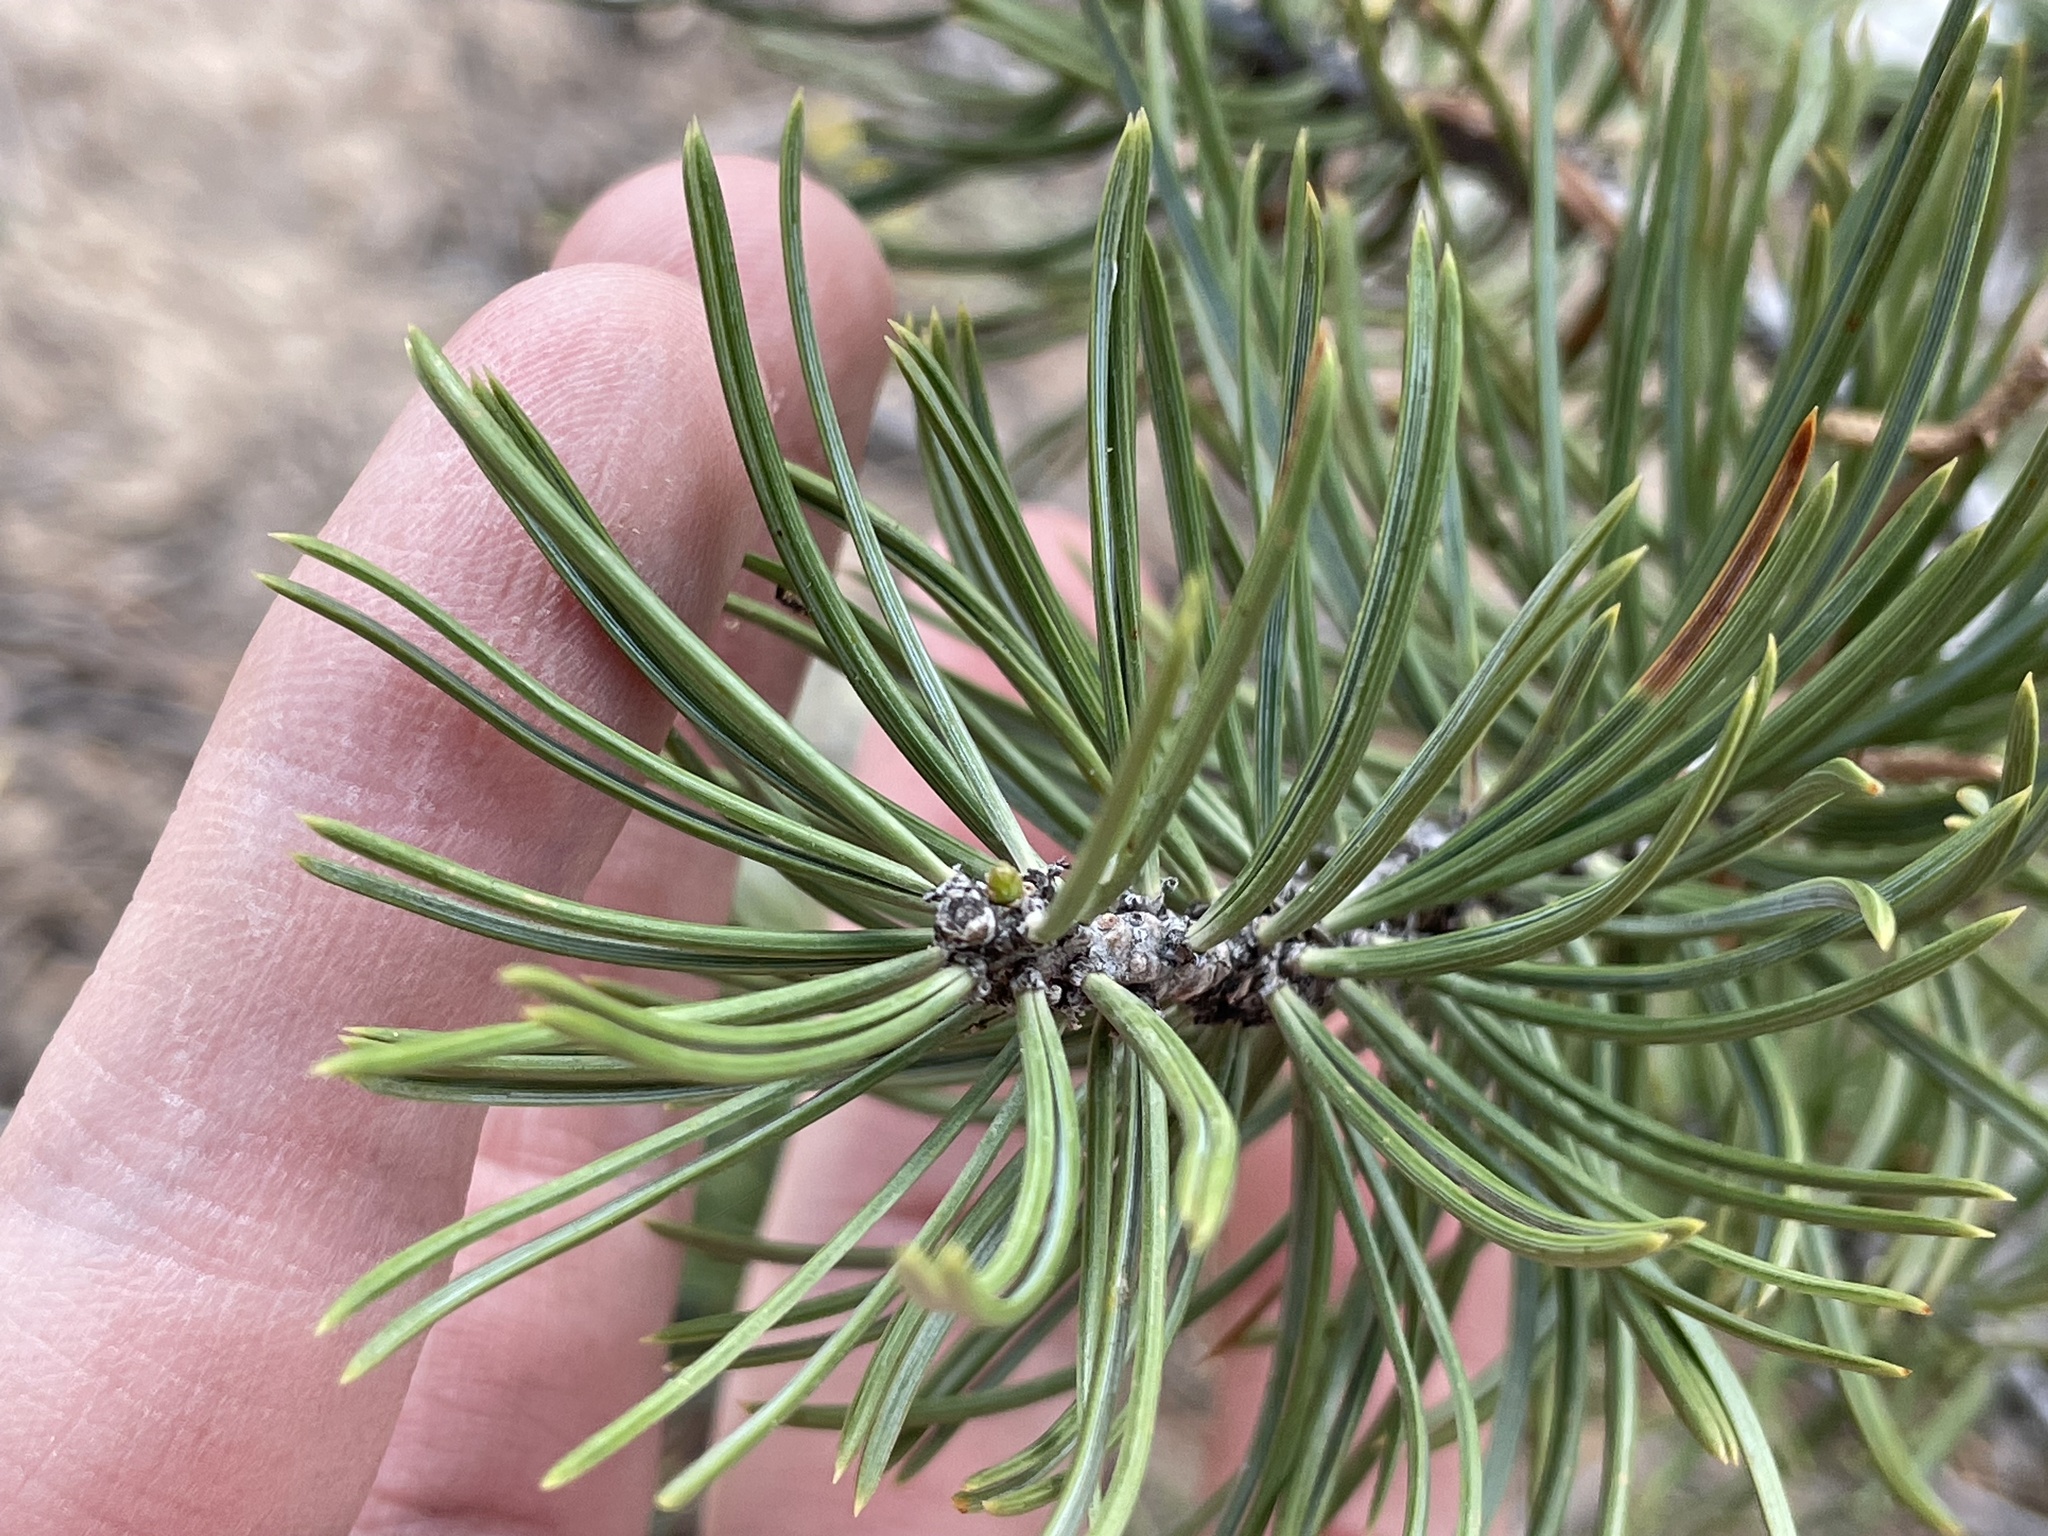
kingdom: Plantae
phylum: Tracheophyta
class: Pinopsida
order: Pinales
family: Pinaceae
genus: Pinus
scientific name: Pinus edulis
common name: Colorado pinyon
